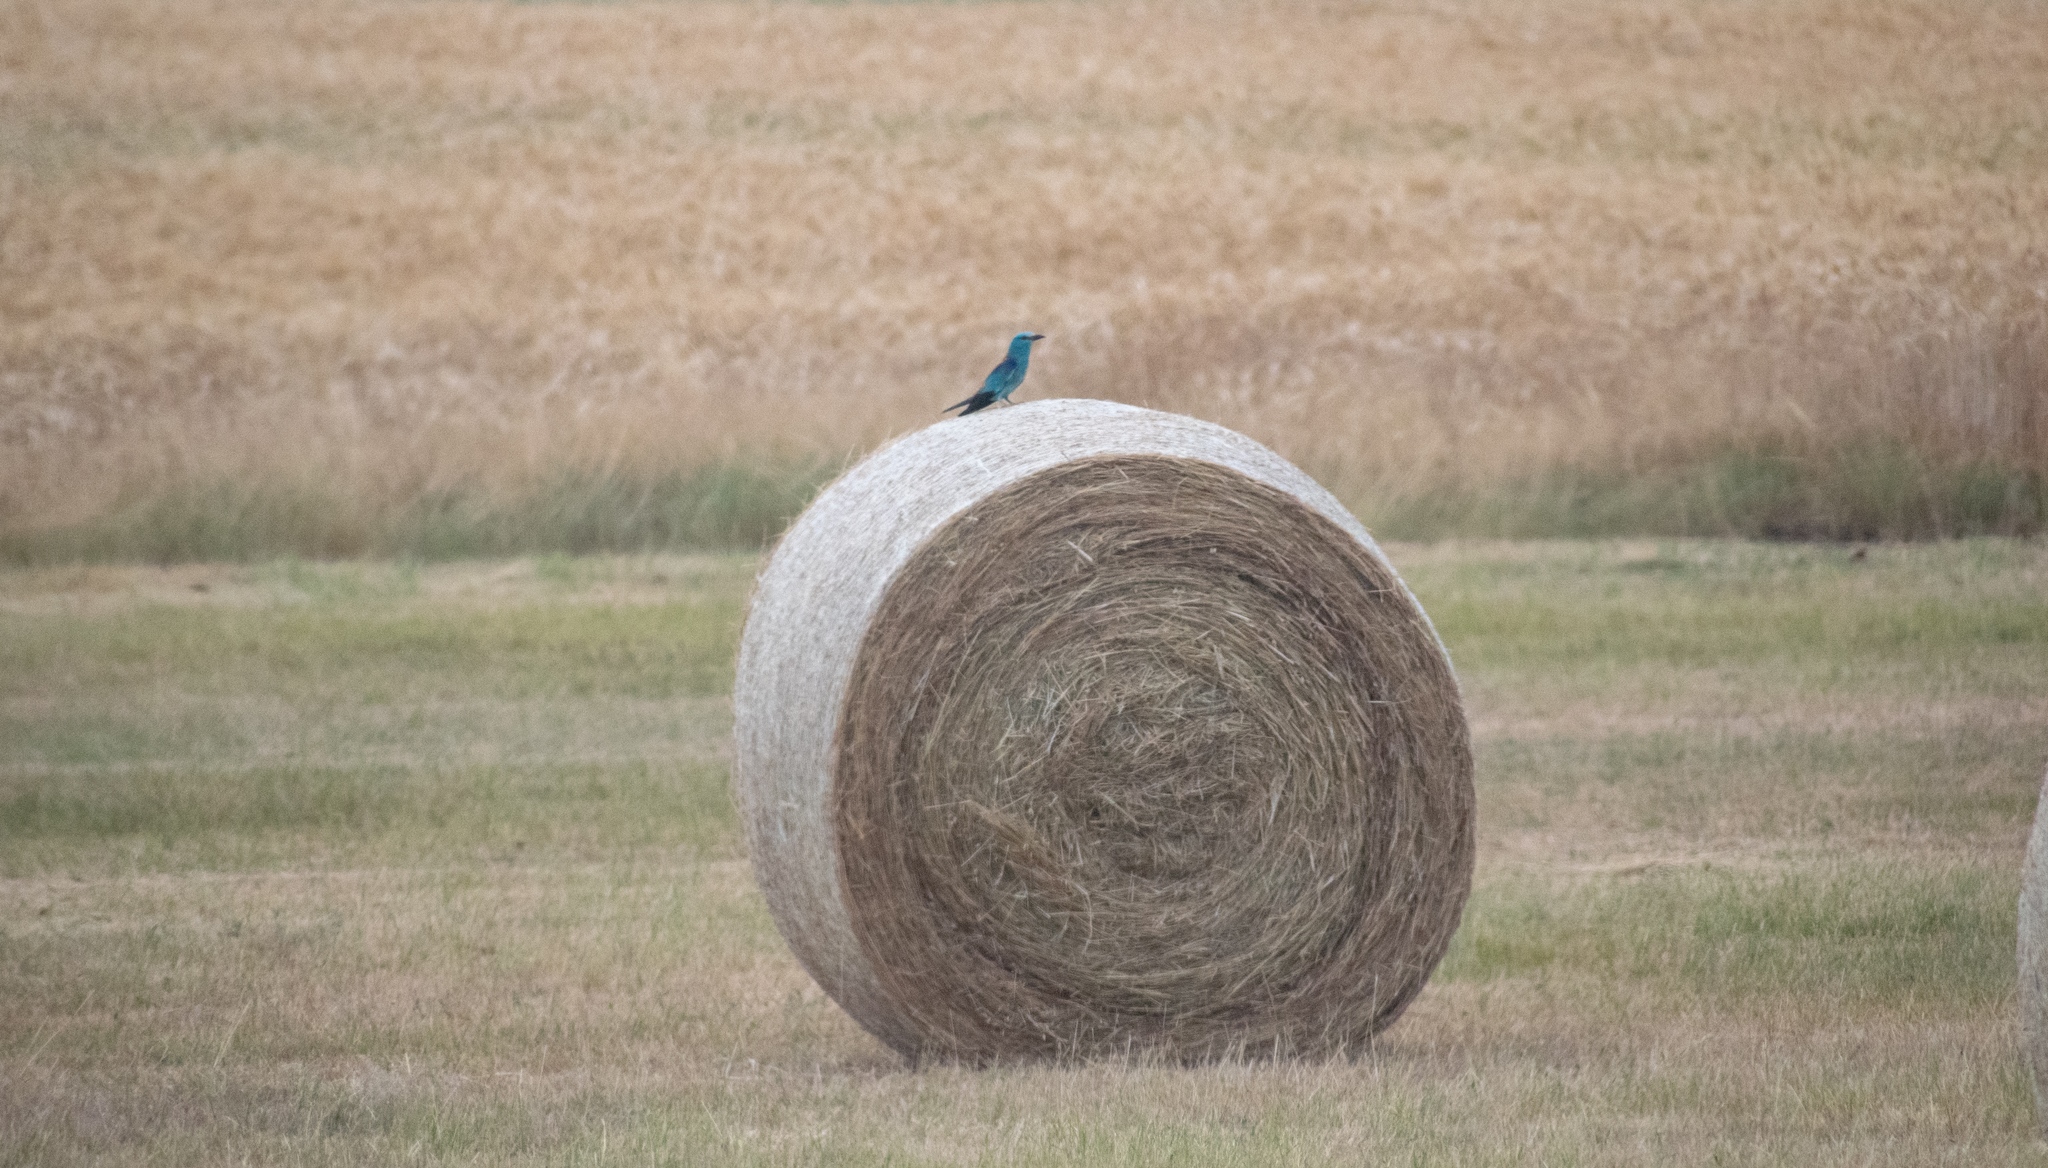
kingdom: Animalia
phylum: Chordata
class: Aves
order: Coraciiformes
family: Coraciidae
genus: Coracias
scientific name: Coracias garrulus
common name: European roller
